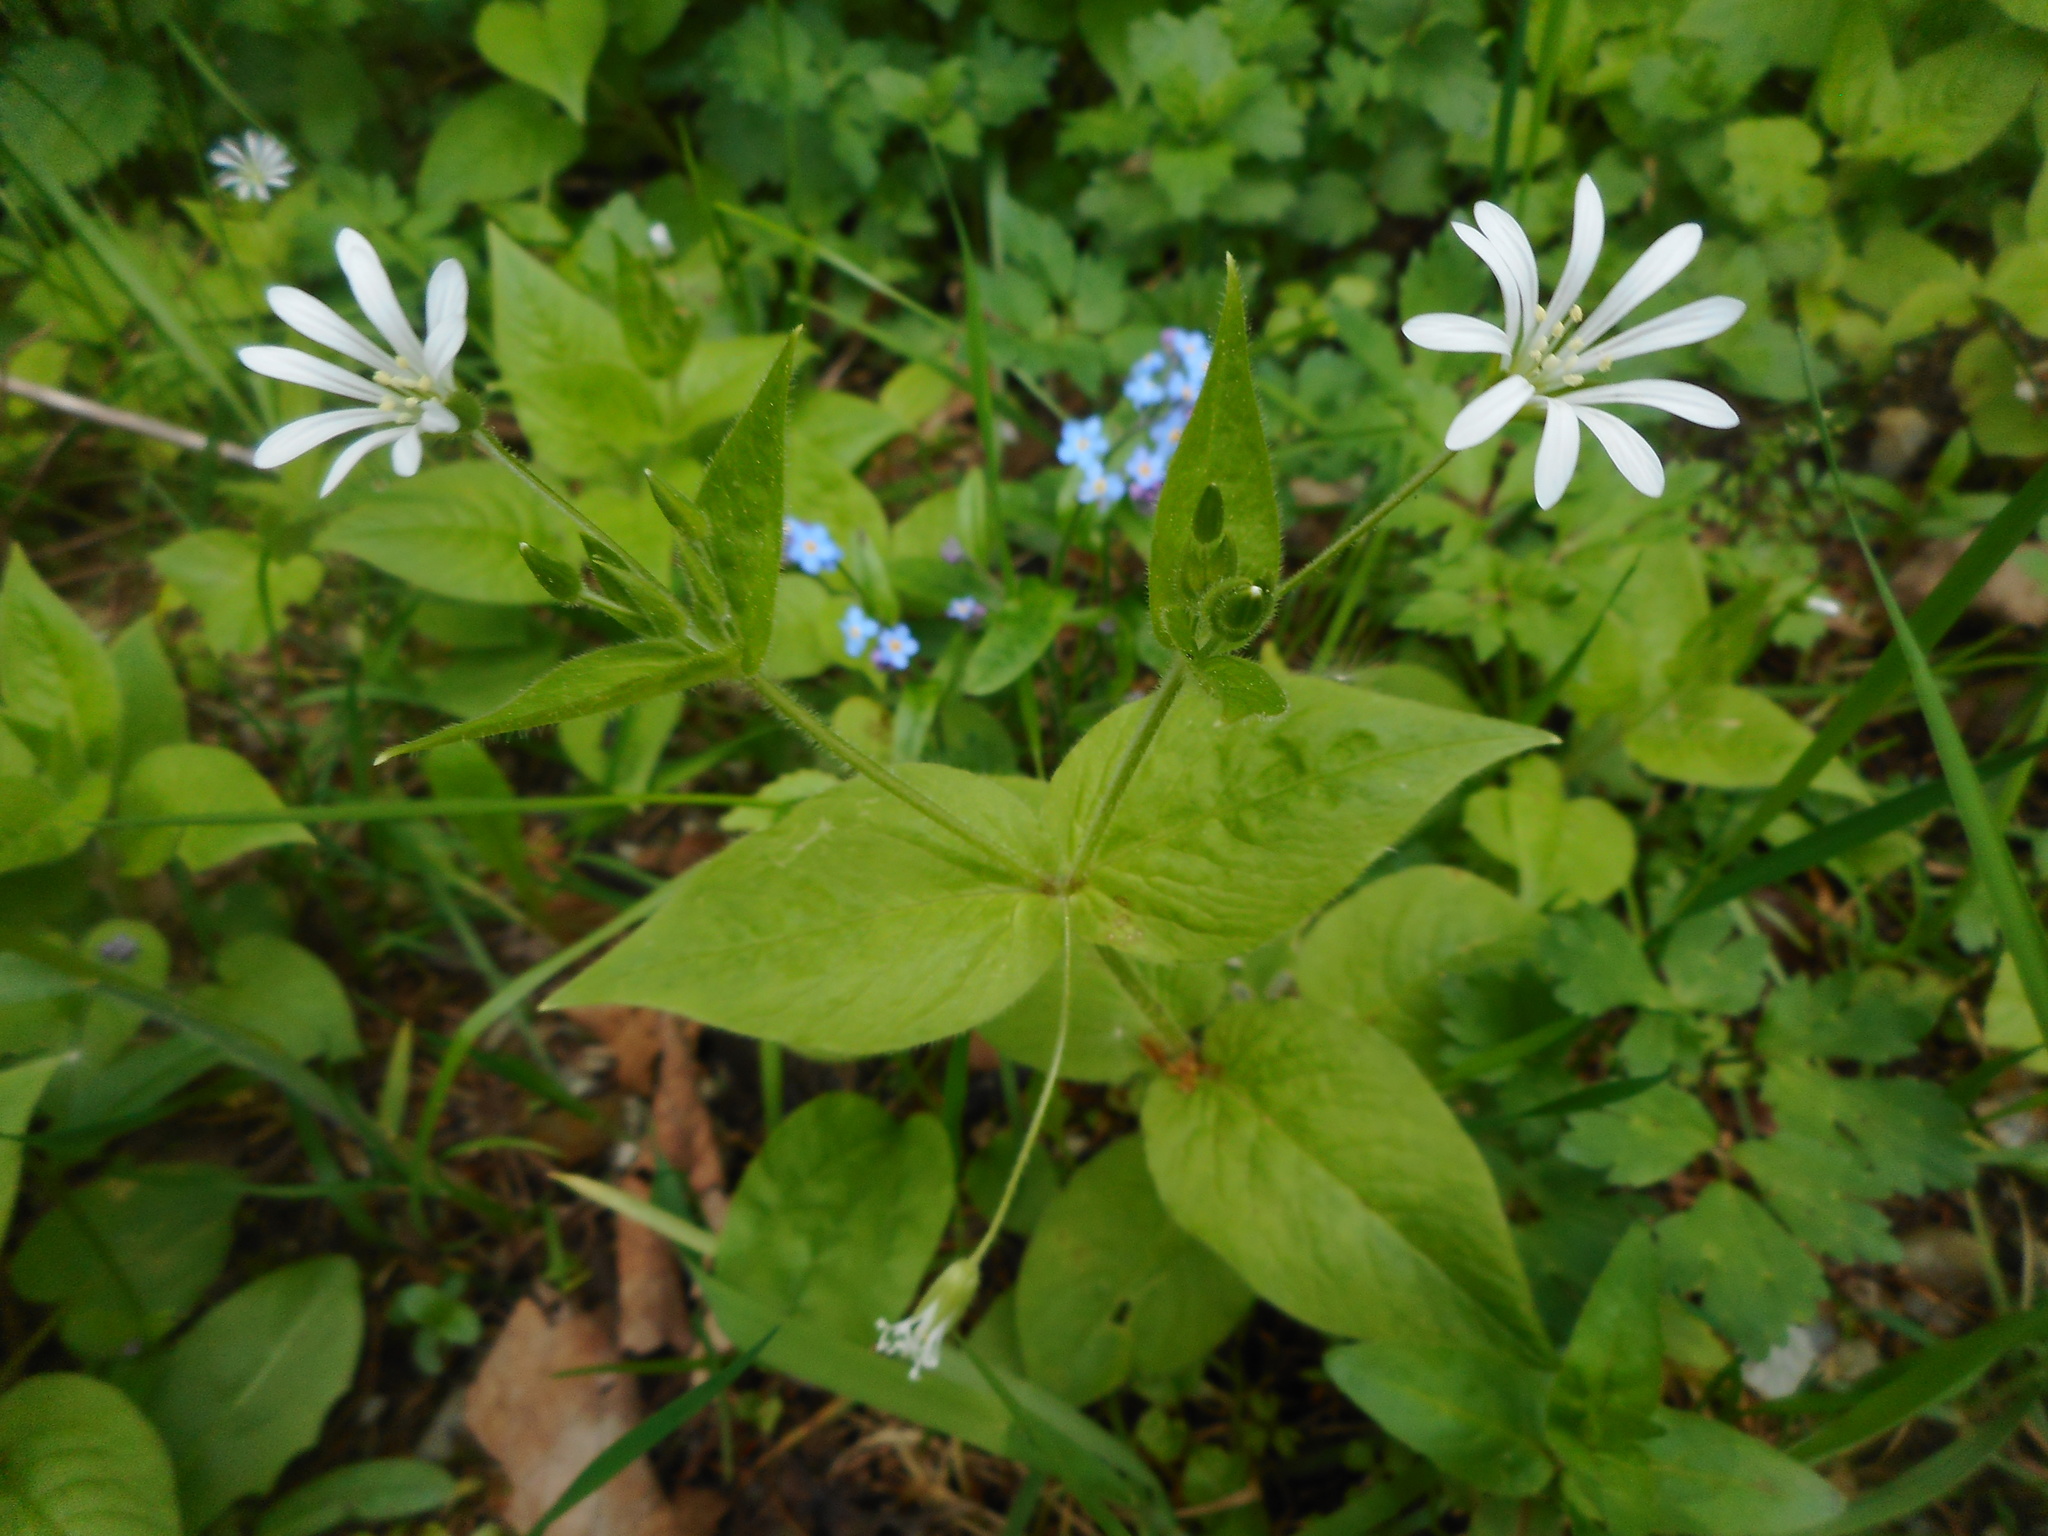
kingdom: Plantae
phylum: Tracheophyta
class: Magnoliopsida
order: Caryophyllales
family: Caryophyllaceae
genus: Stellaria
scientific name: Stellaria nemorum
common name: Wood stitchwort
